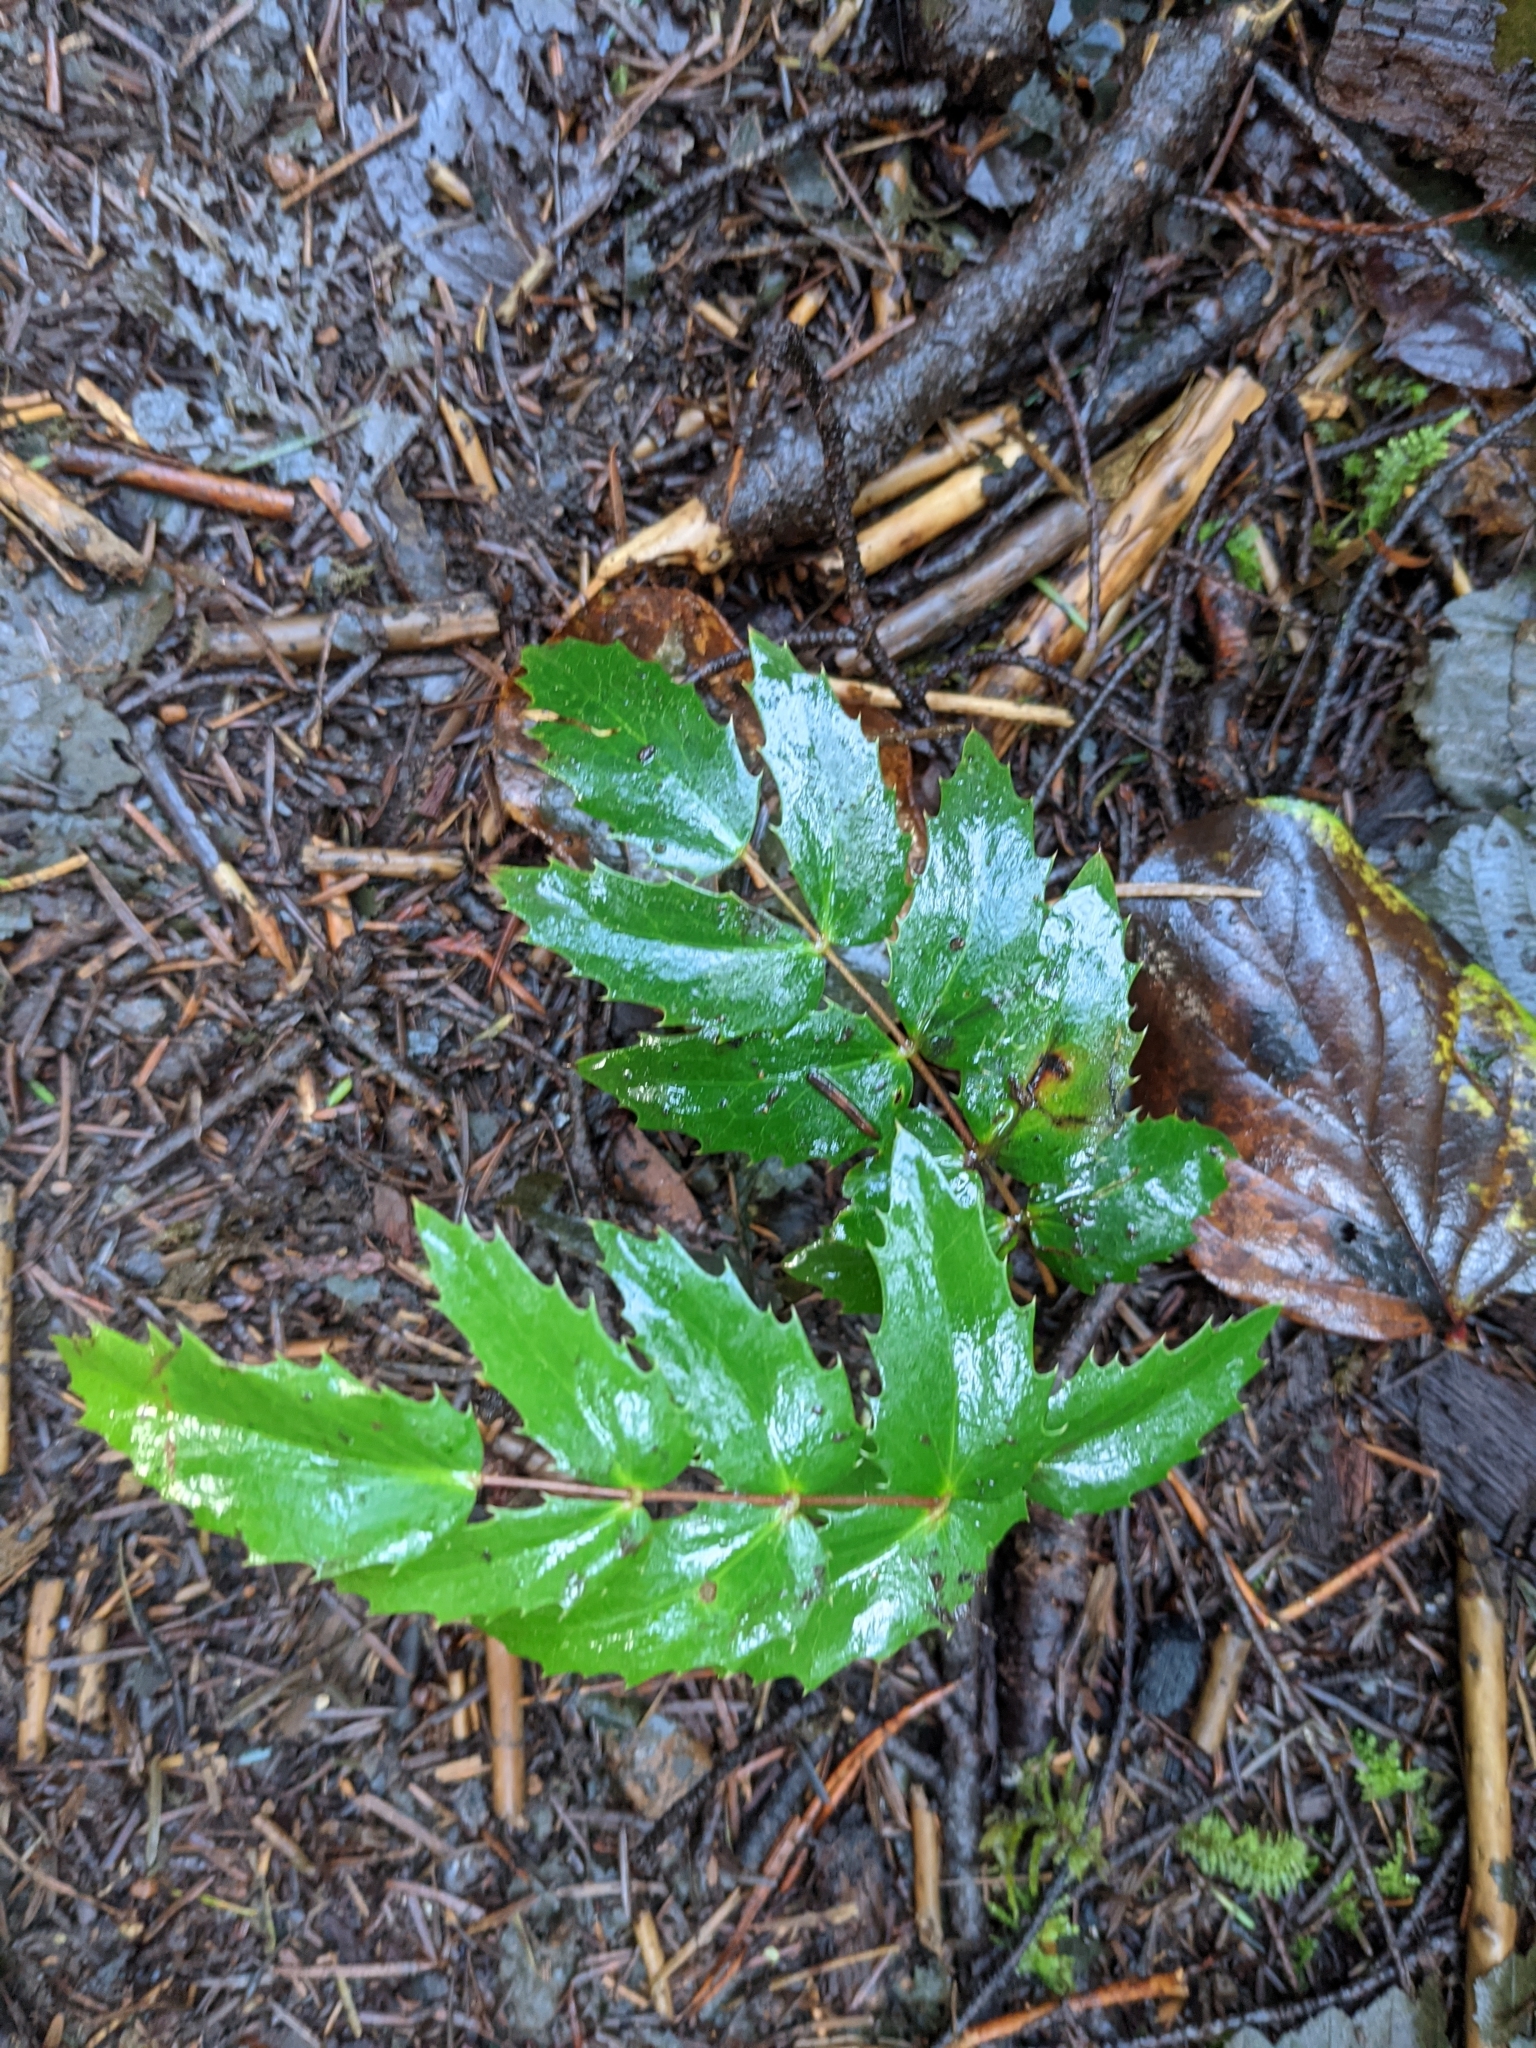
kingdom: Plantae
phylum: Tracheophyta
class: Magnoliopsida
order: Ranunculales
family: Berberidaceae
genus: Mahonia
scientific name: Mahonia nervosa
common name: Cascade oregon-grape
